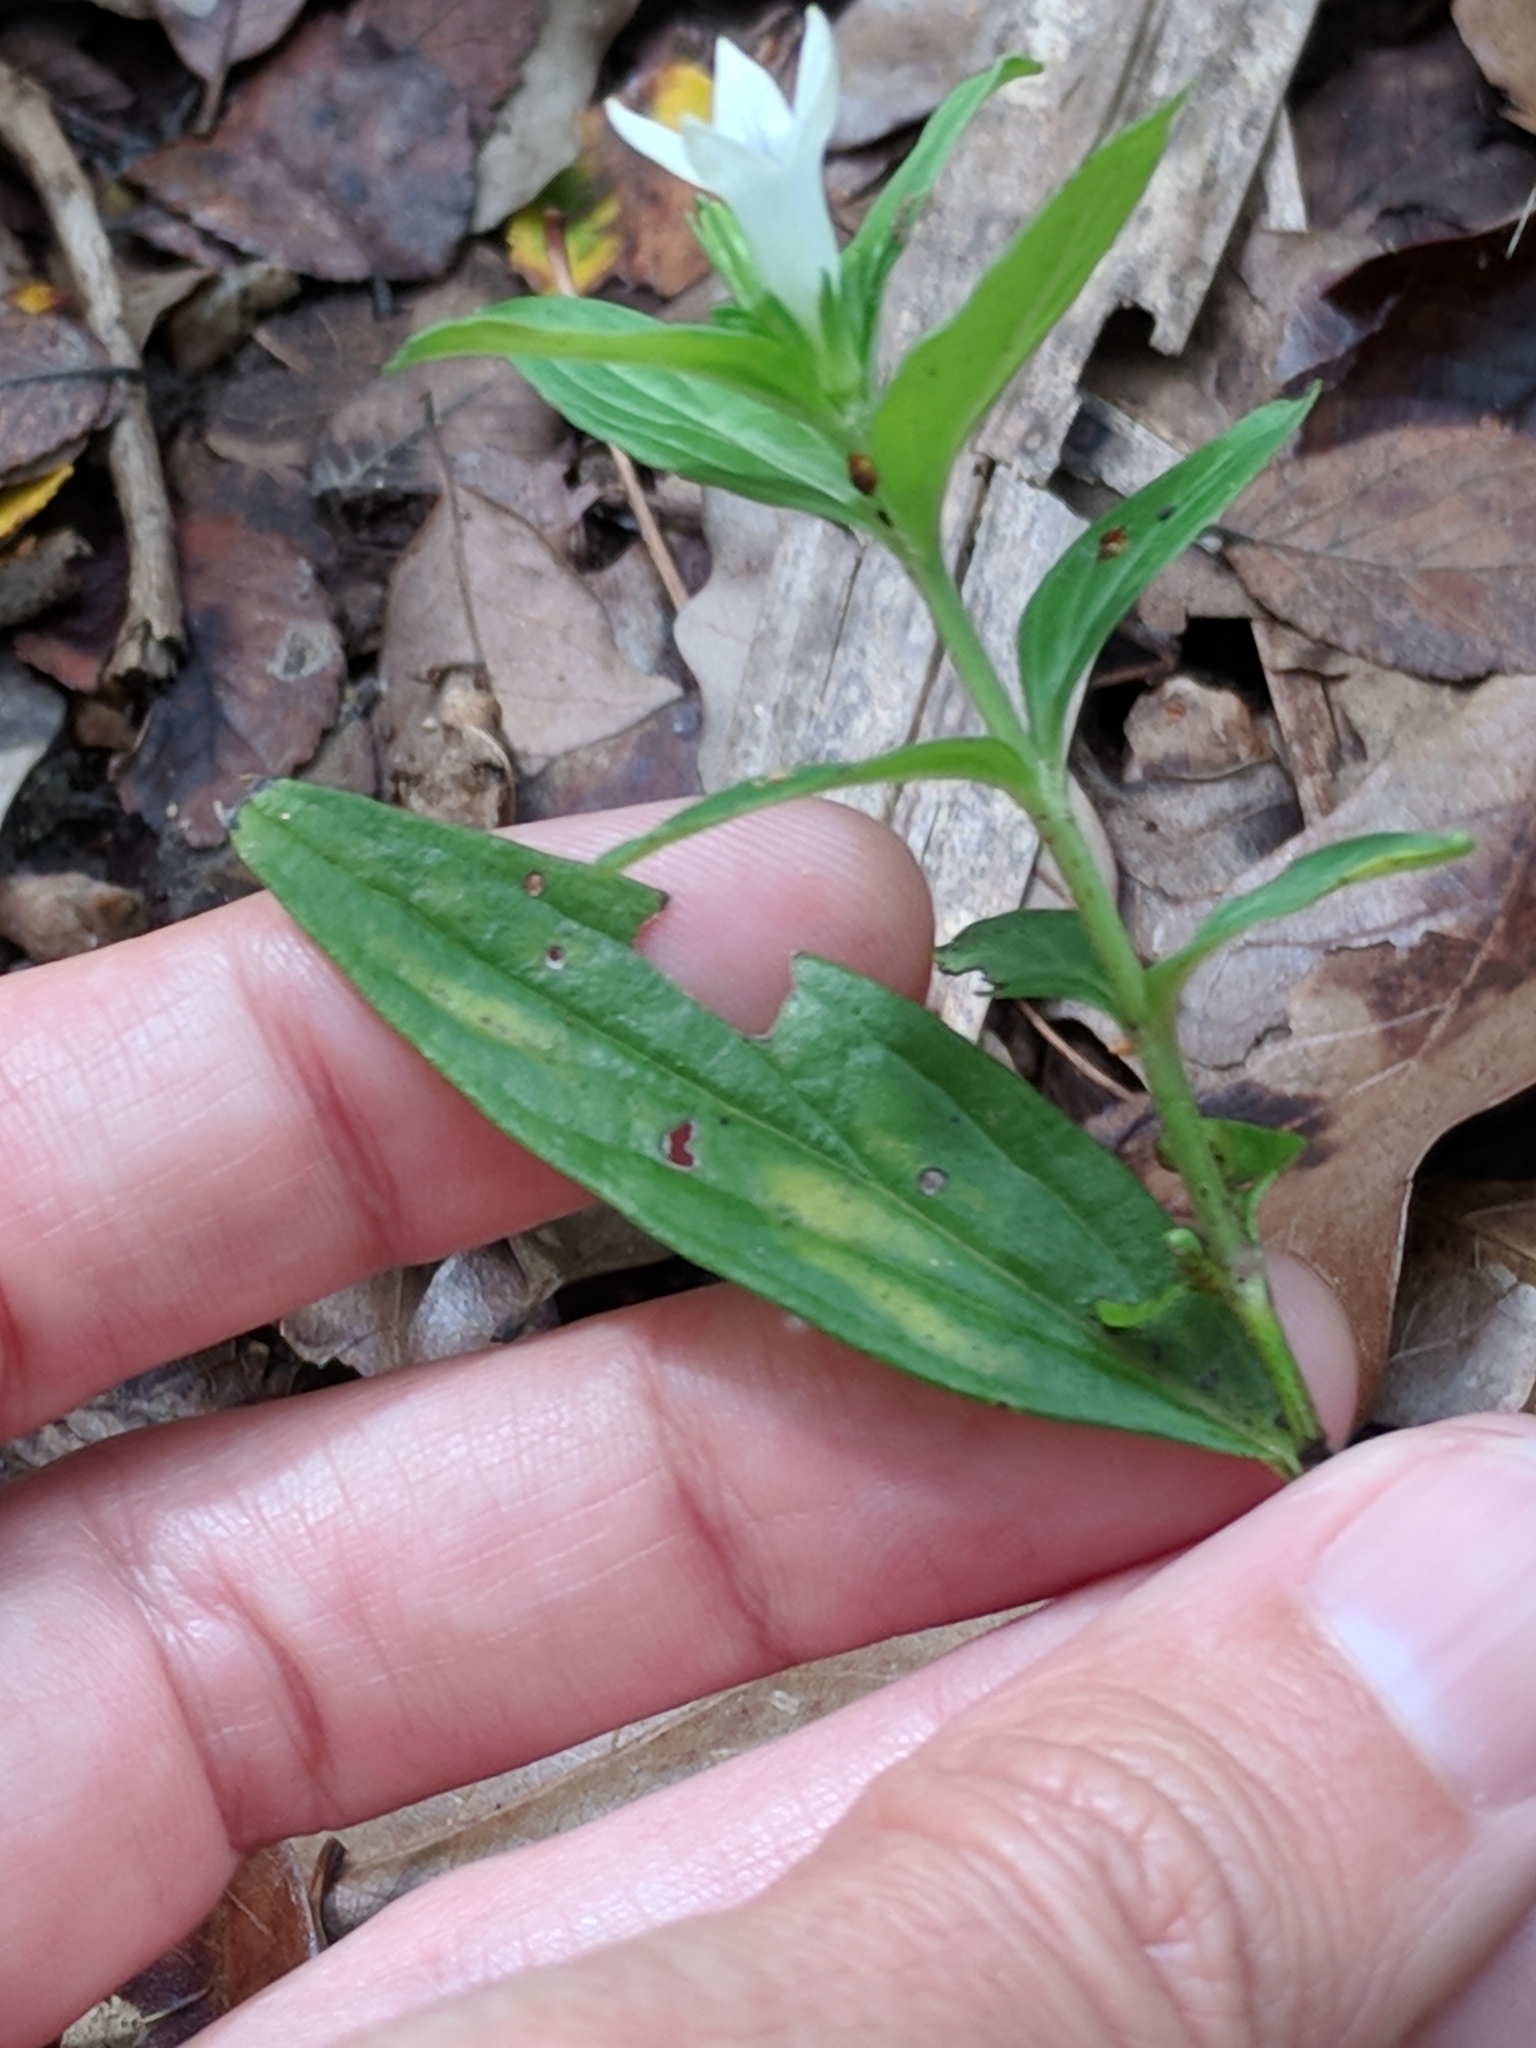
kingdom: Plantae
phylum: Tracheophyta
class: Magnoliopsida
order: Gentianales
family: Loganiaceae
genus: Spigelia
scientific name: Spigelia hedyotidea
